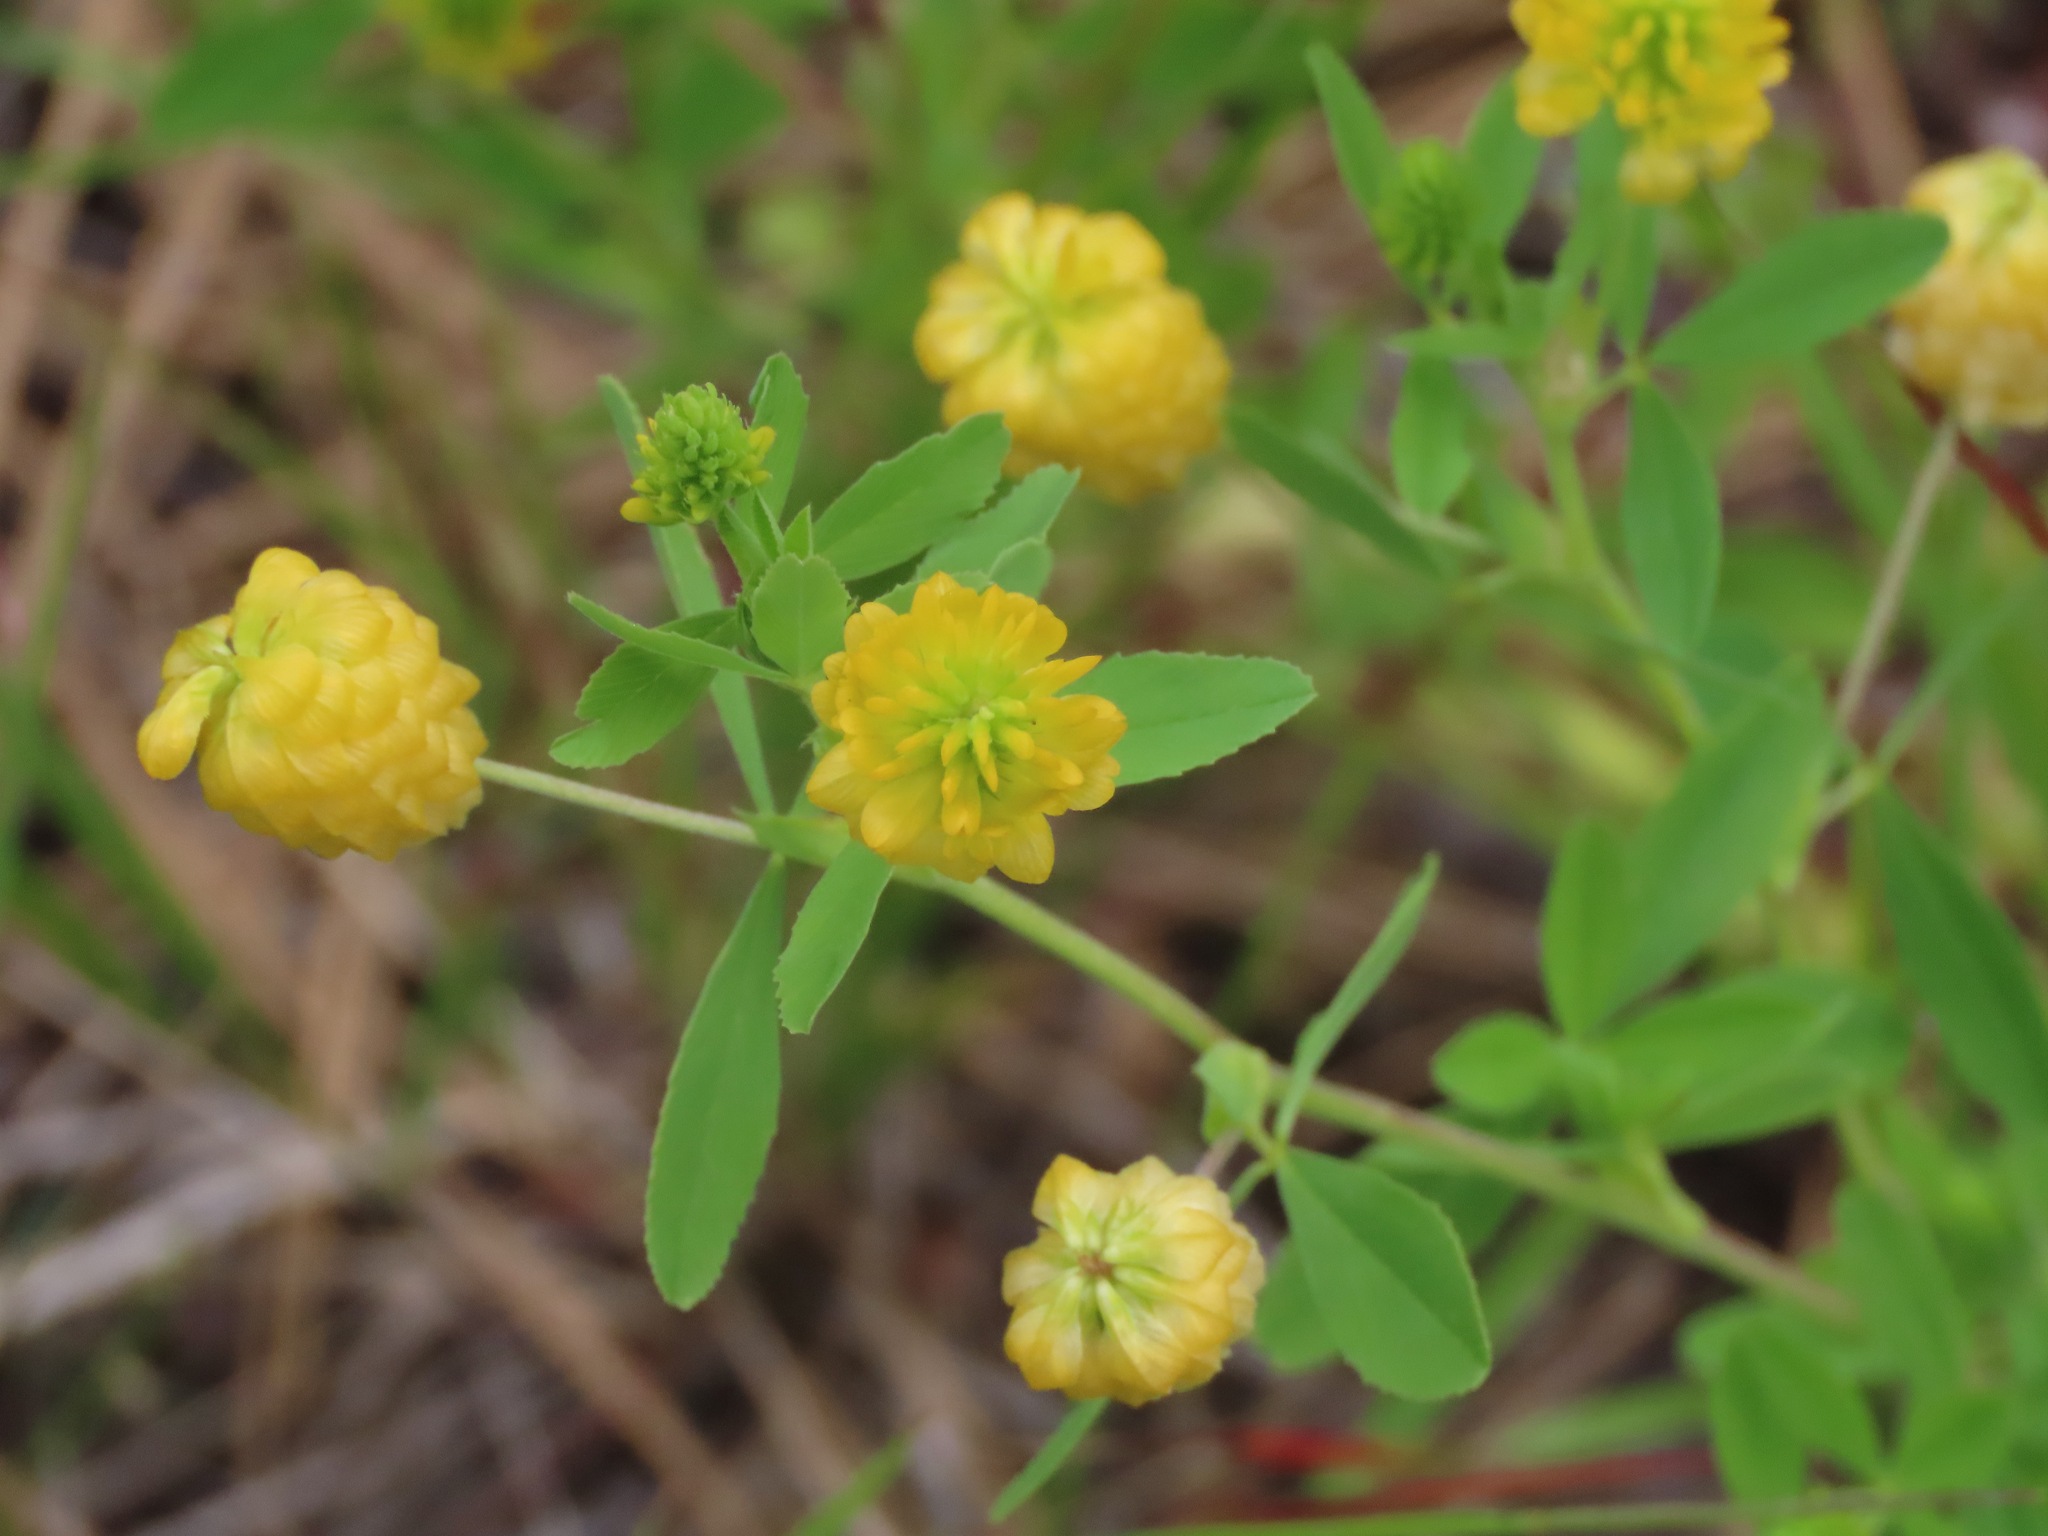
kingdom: Plantae
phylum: Tracheophyta
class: Magnoliopsida
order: Fabales
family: Fabaceae
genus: Trifolium
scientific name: Trifolium aureum
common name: Golden clover
